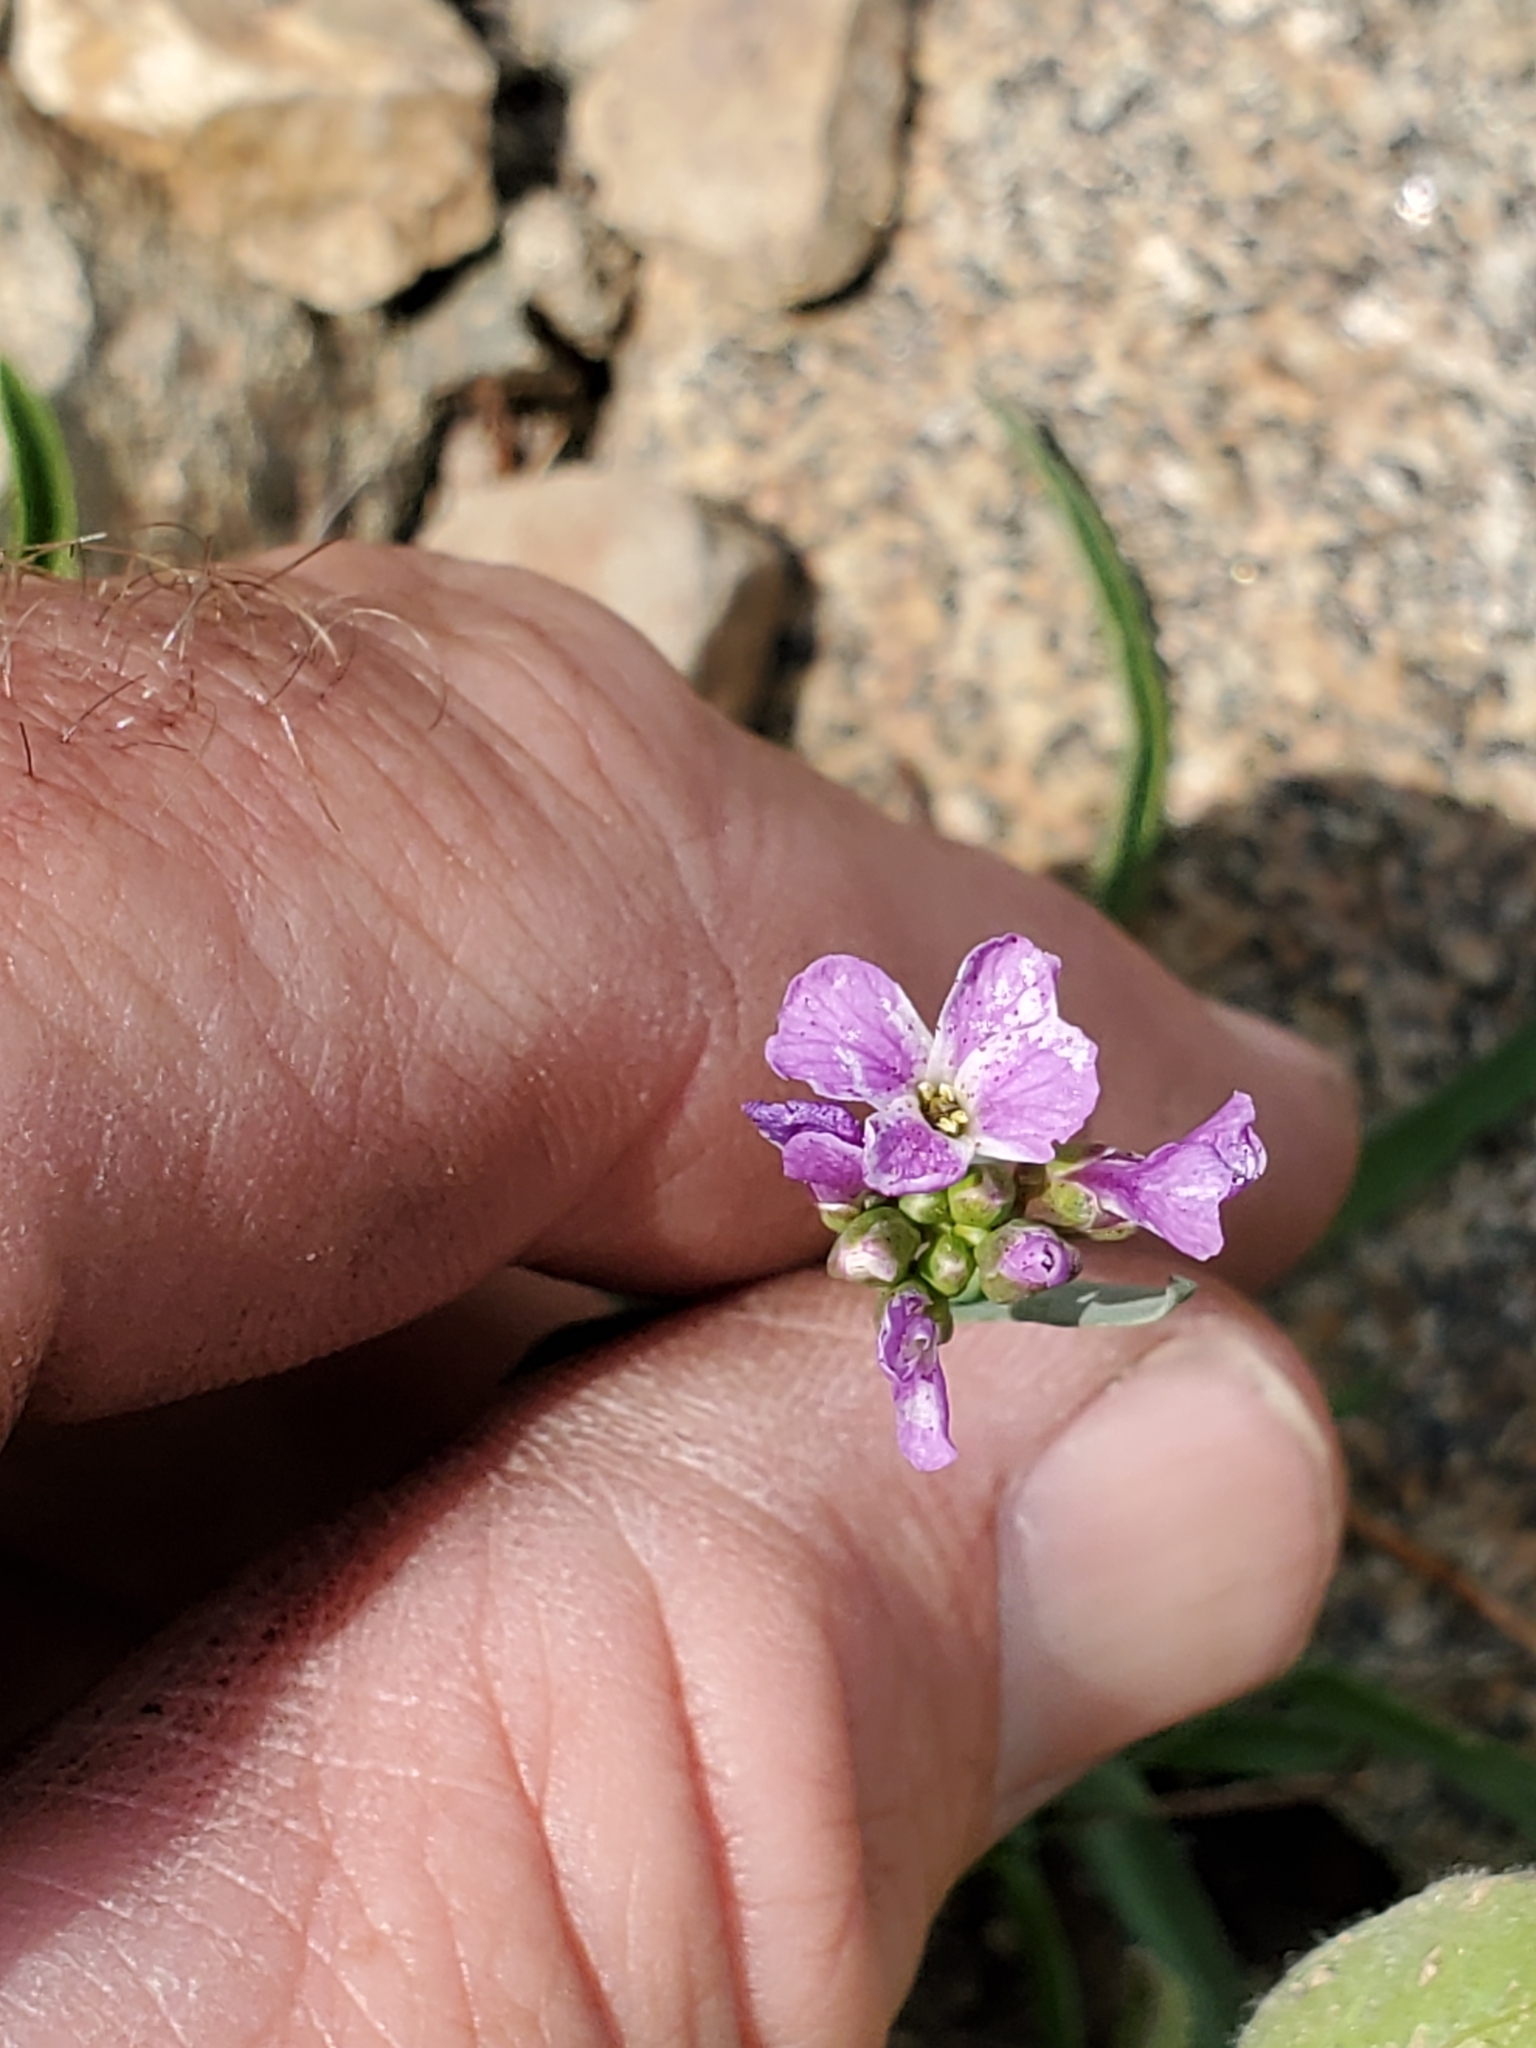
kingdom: Plantae
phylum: Tracheophyta
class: Magnoliopsida
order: Brassicales
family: Brassicaceae
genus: Boechera
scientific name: Boechera lyallii
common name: Lyall's rockcress
